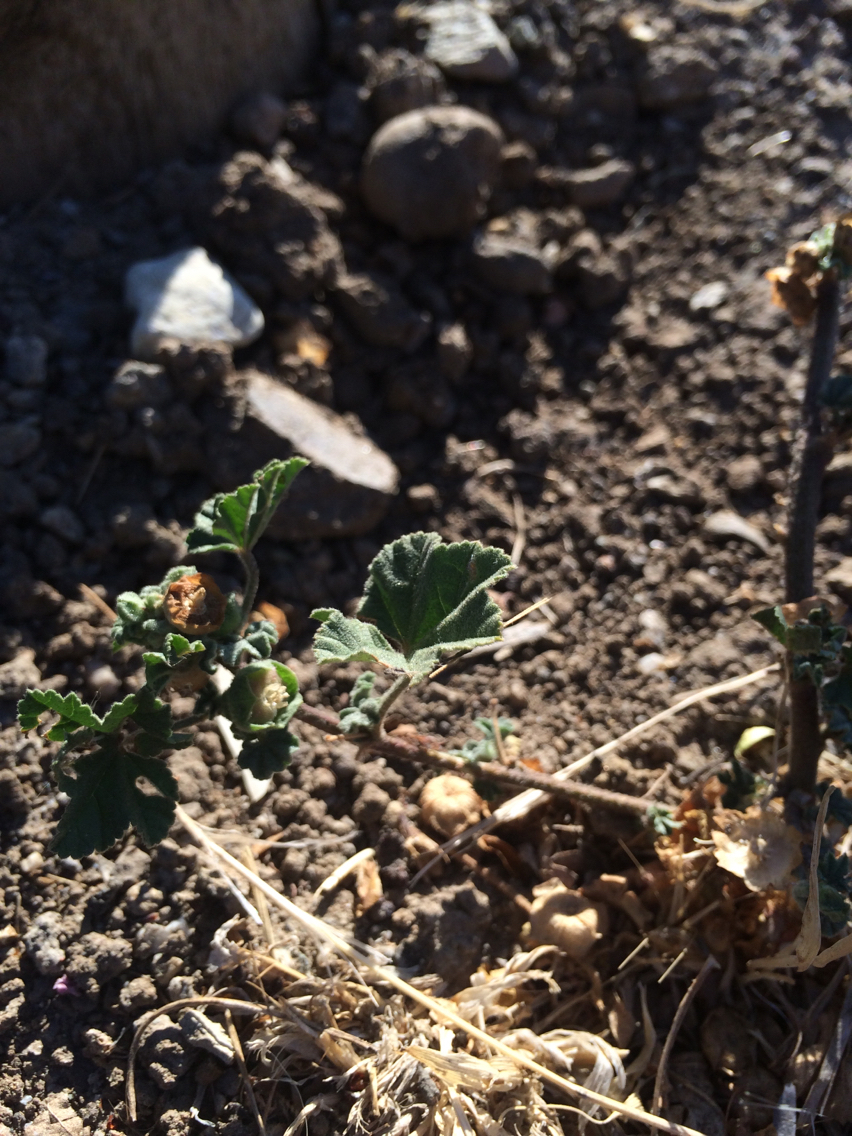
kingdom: Plantae
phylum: Tracheophyta
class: Magnoliopsida
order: Malvales
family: Malvaceae
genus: Malva
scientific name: Malva parviflora
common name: Least mallow
